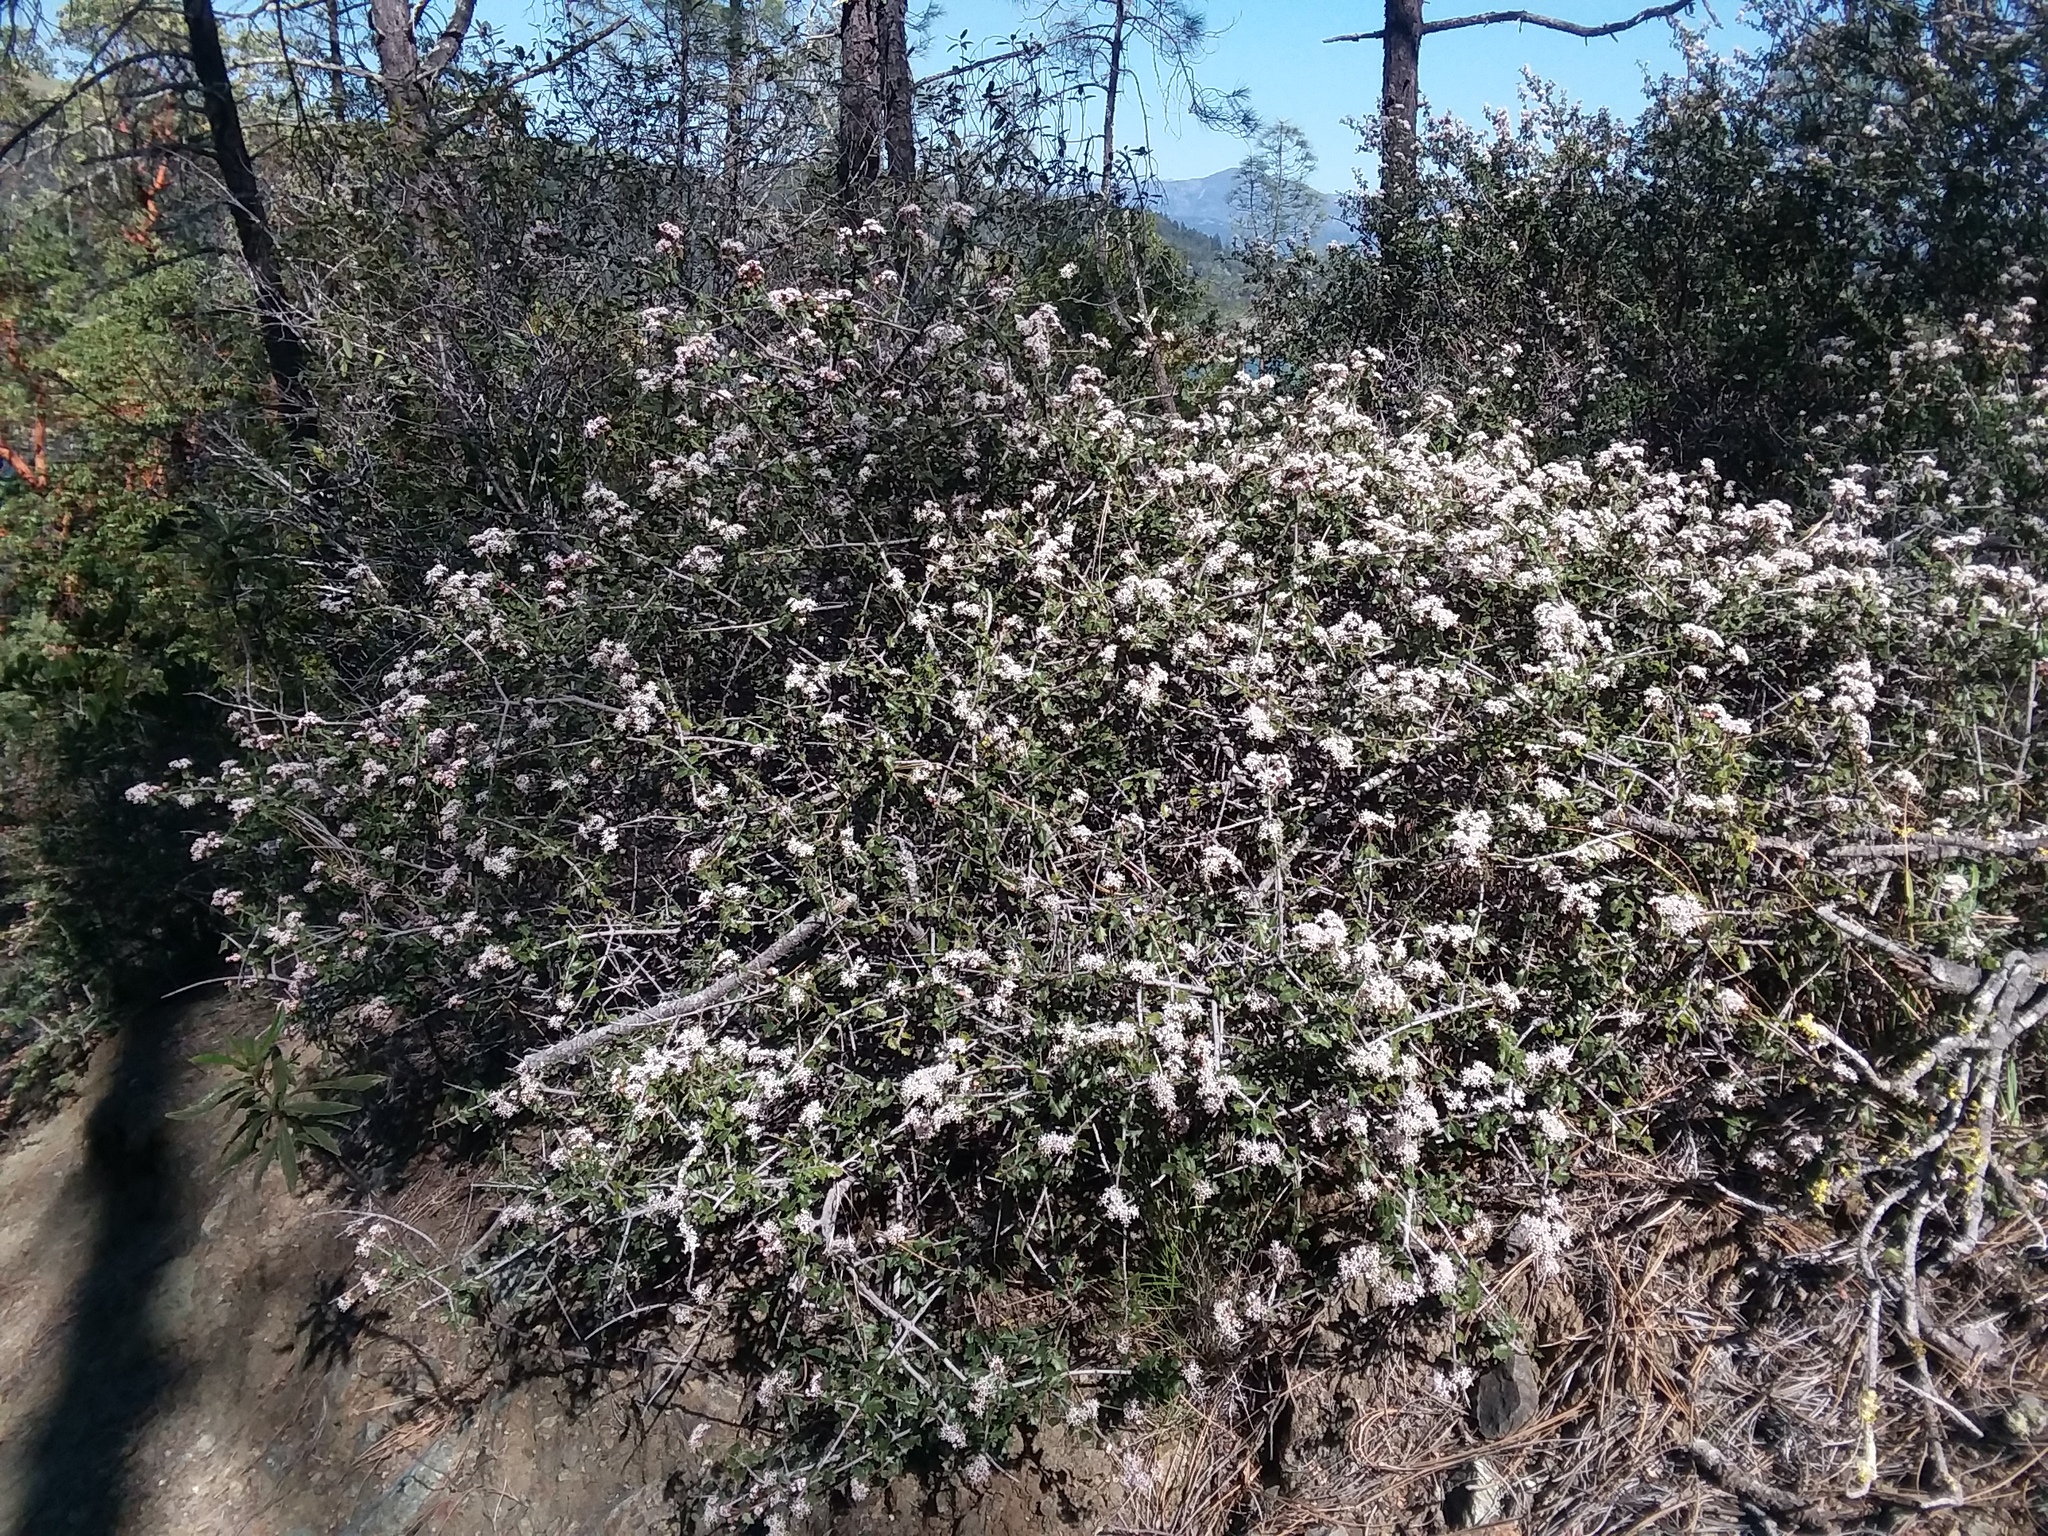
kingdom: Plantae
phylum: Tracheophyta
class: Magnoliopsida
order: Rosales
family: Rhamnaceae
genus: Ceanothus
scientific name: Ceanothus jepsonii
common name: Muskbrush
